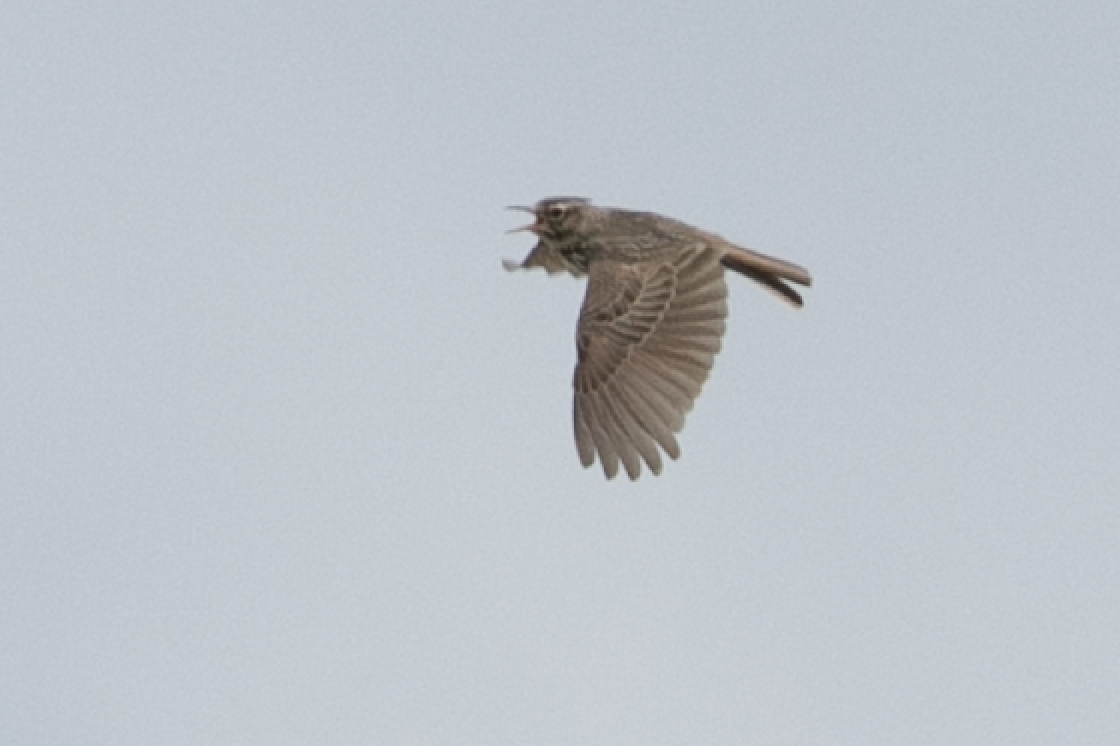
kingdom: Animalia
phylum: Chordata
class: Aves
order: Passeriformes
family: Alaudidae
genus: Galerida
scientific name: Galerida cristata
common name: Crested lark
